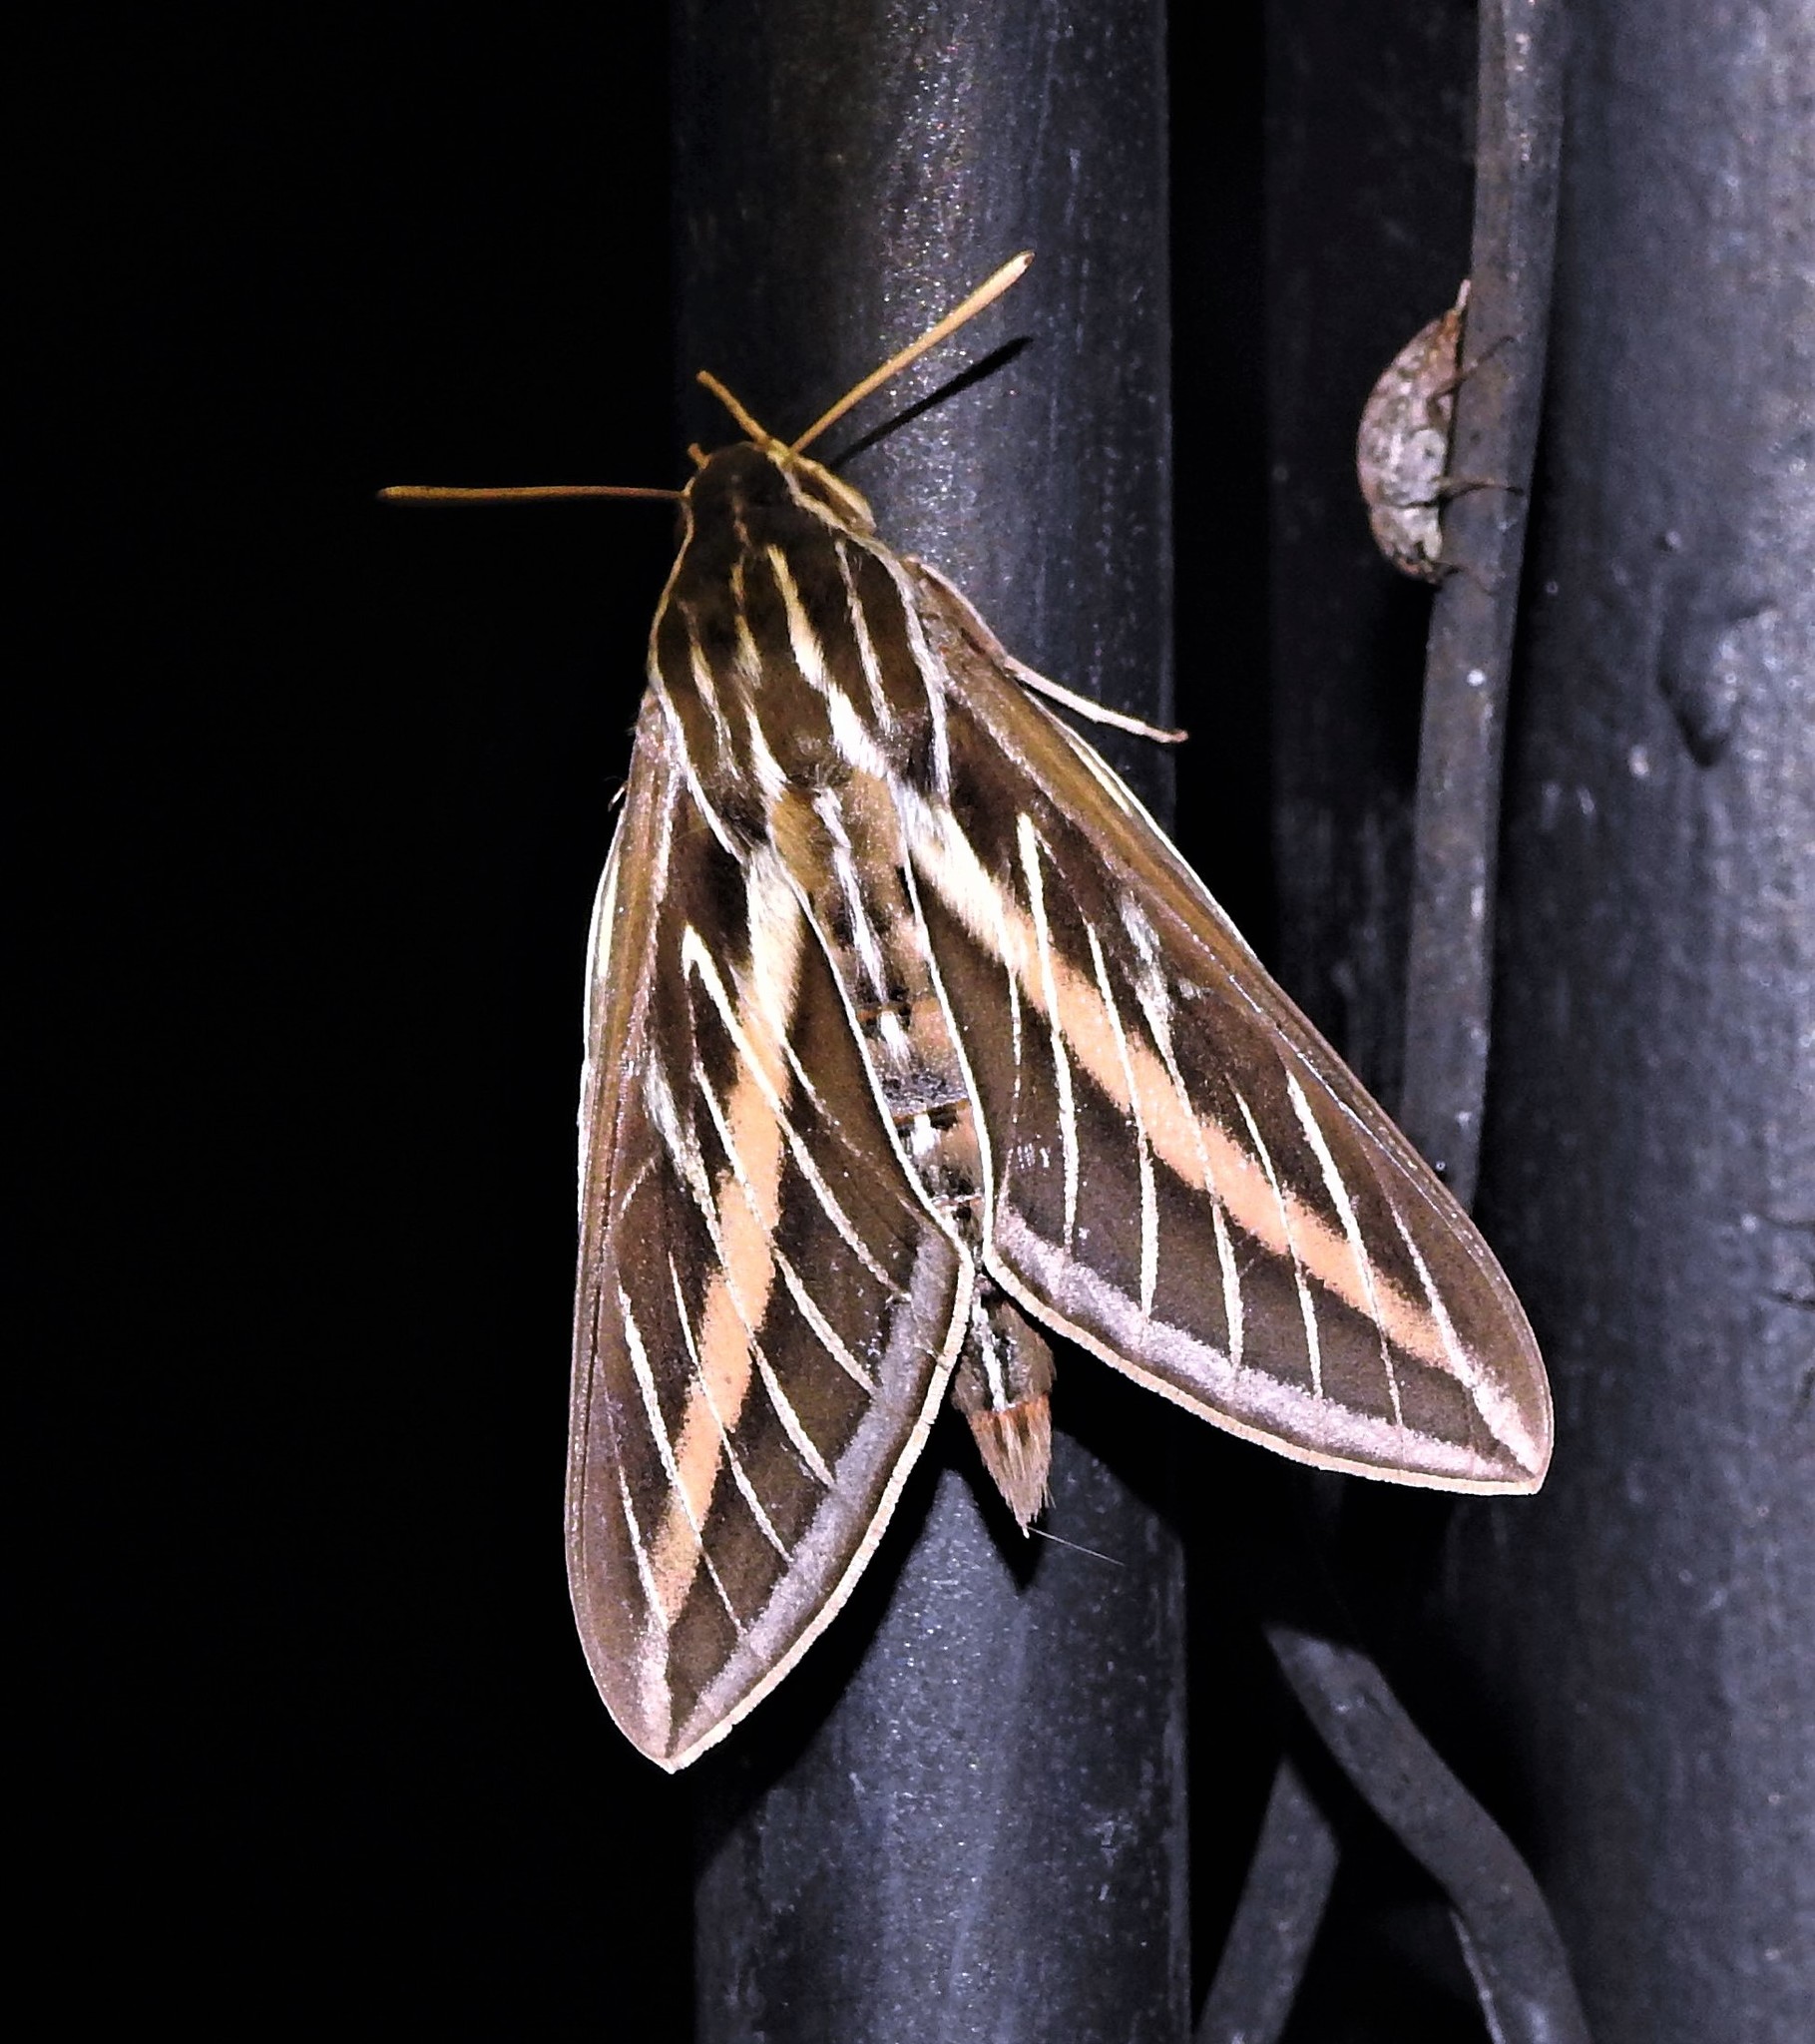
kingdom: Animalia
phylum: Arthropoda
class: Insecta
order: Lepidoptera
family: Sphingidae
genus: Hyles
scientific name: Hyles lineata
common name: White-lined sphinx
